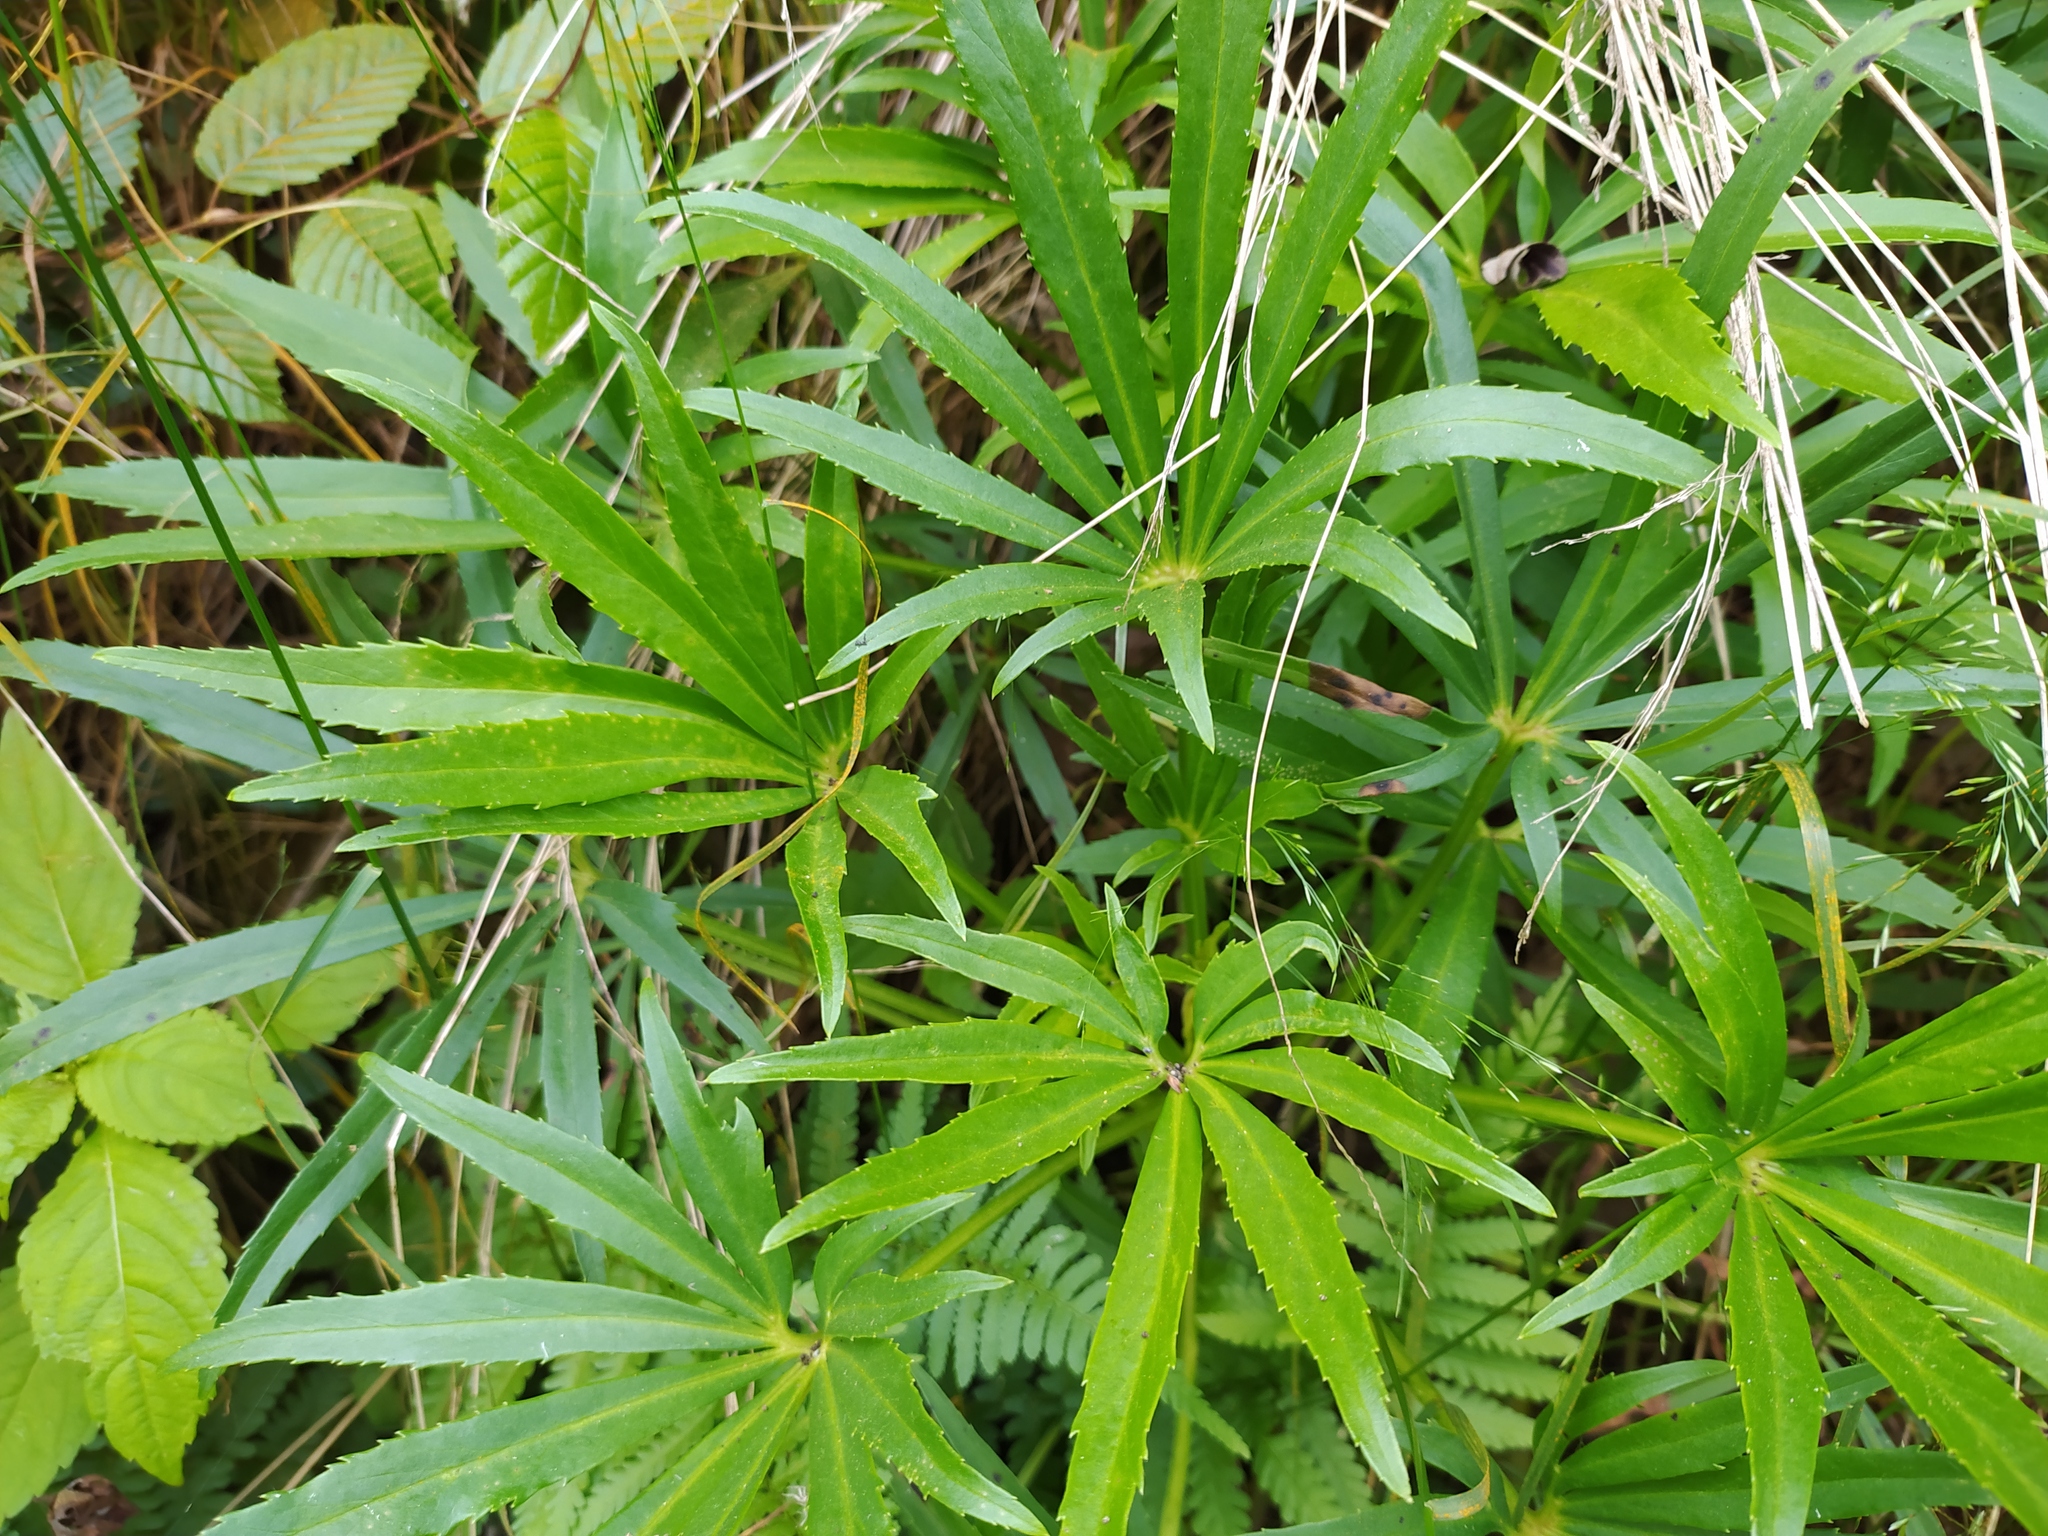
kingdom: Plantae
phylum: Tracheophyta
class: Magnoliopsida
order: Ranunculales
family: Ranunculaceae
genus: Helleborus
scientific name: Helleborus foetidus
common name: Stinking hellebore
